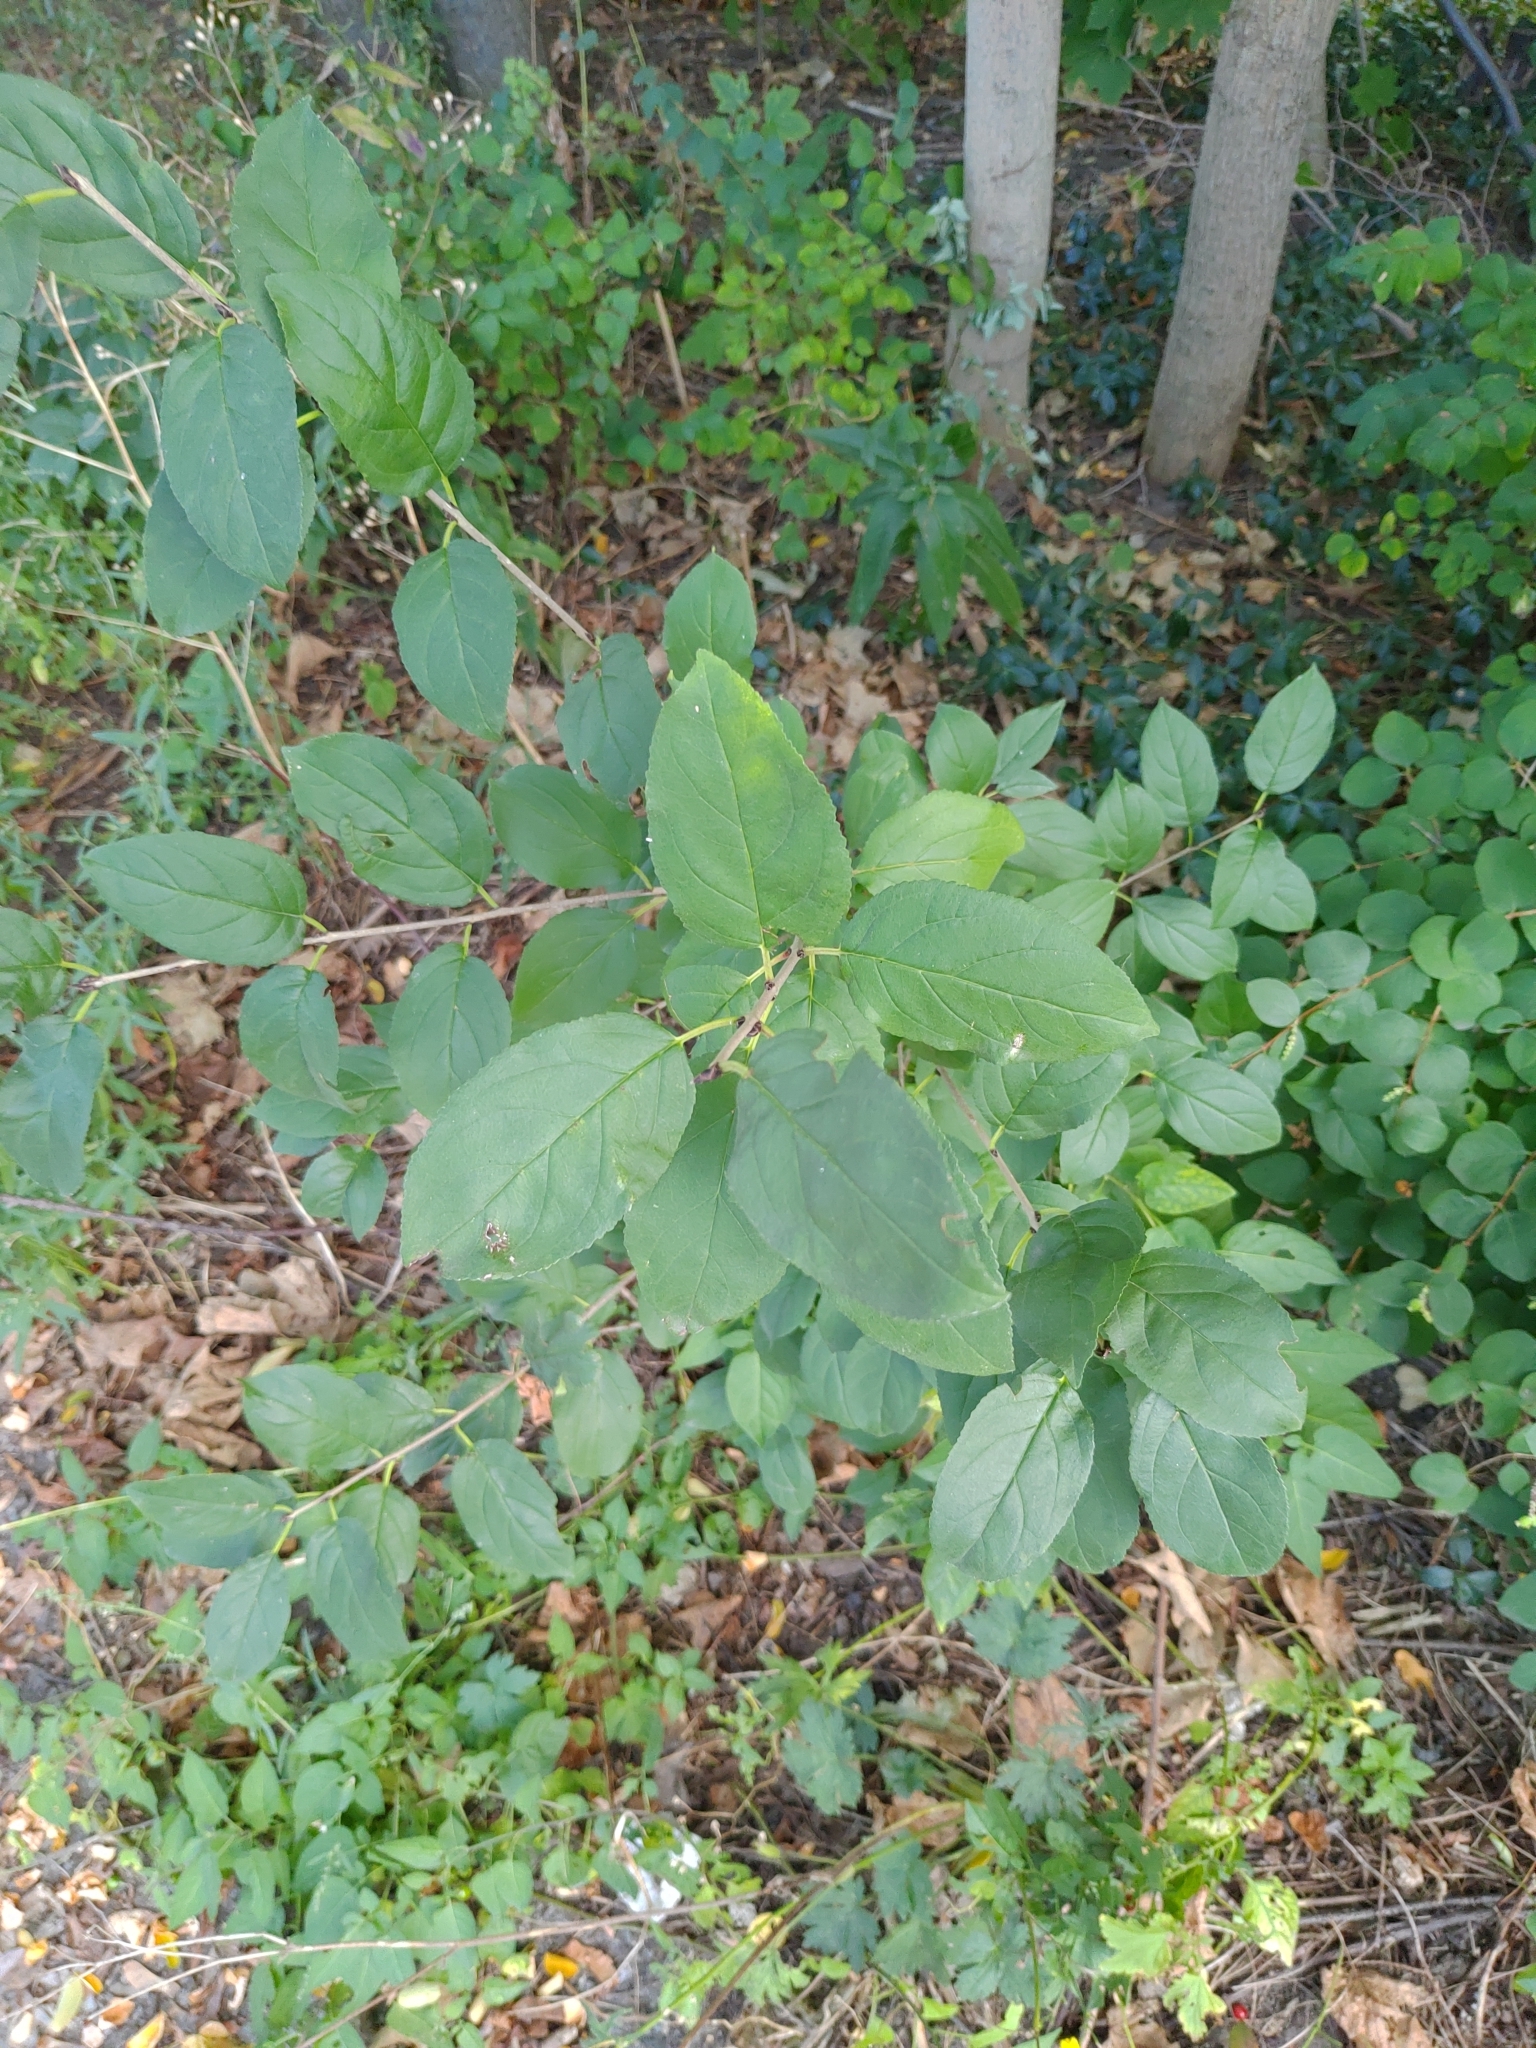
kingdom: Plantae
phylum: Tracheophyta
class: Magnoliopsida
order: Rosales
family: Rhamnaceae
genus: Rhamnus
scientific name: Rhamnus cathartica
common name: Common buckthorn
